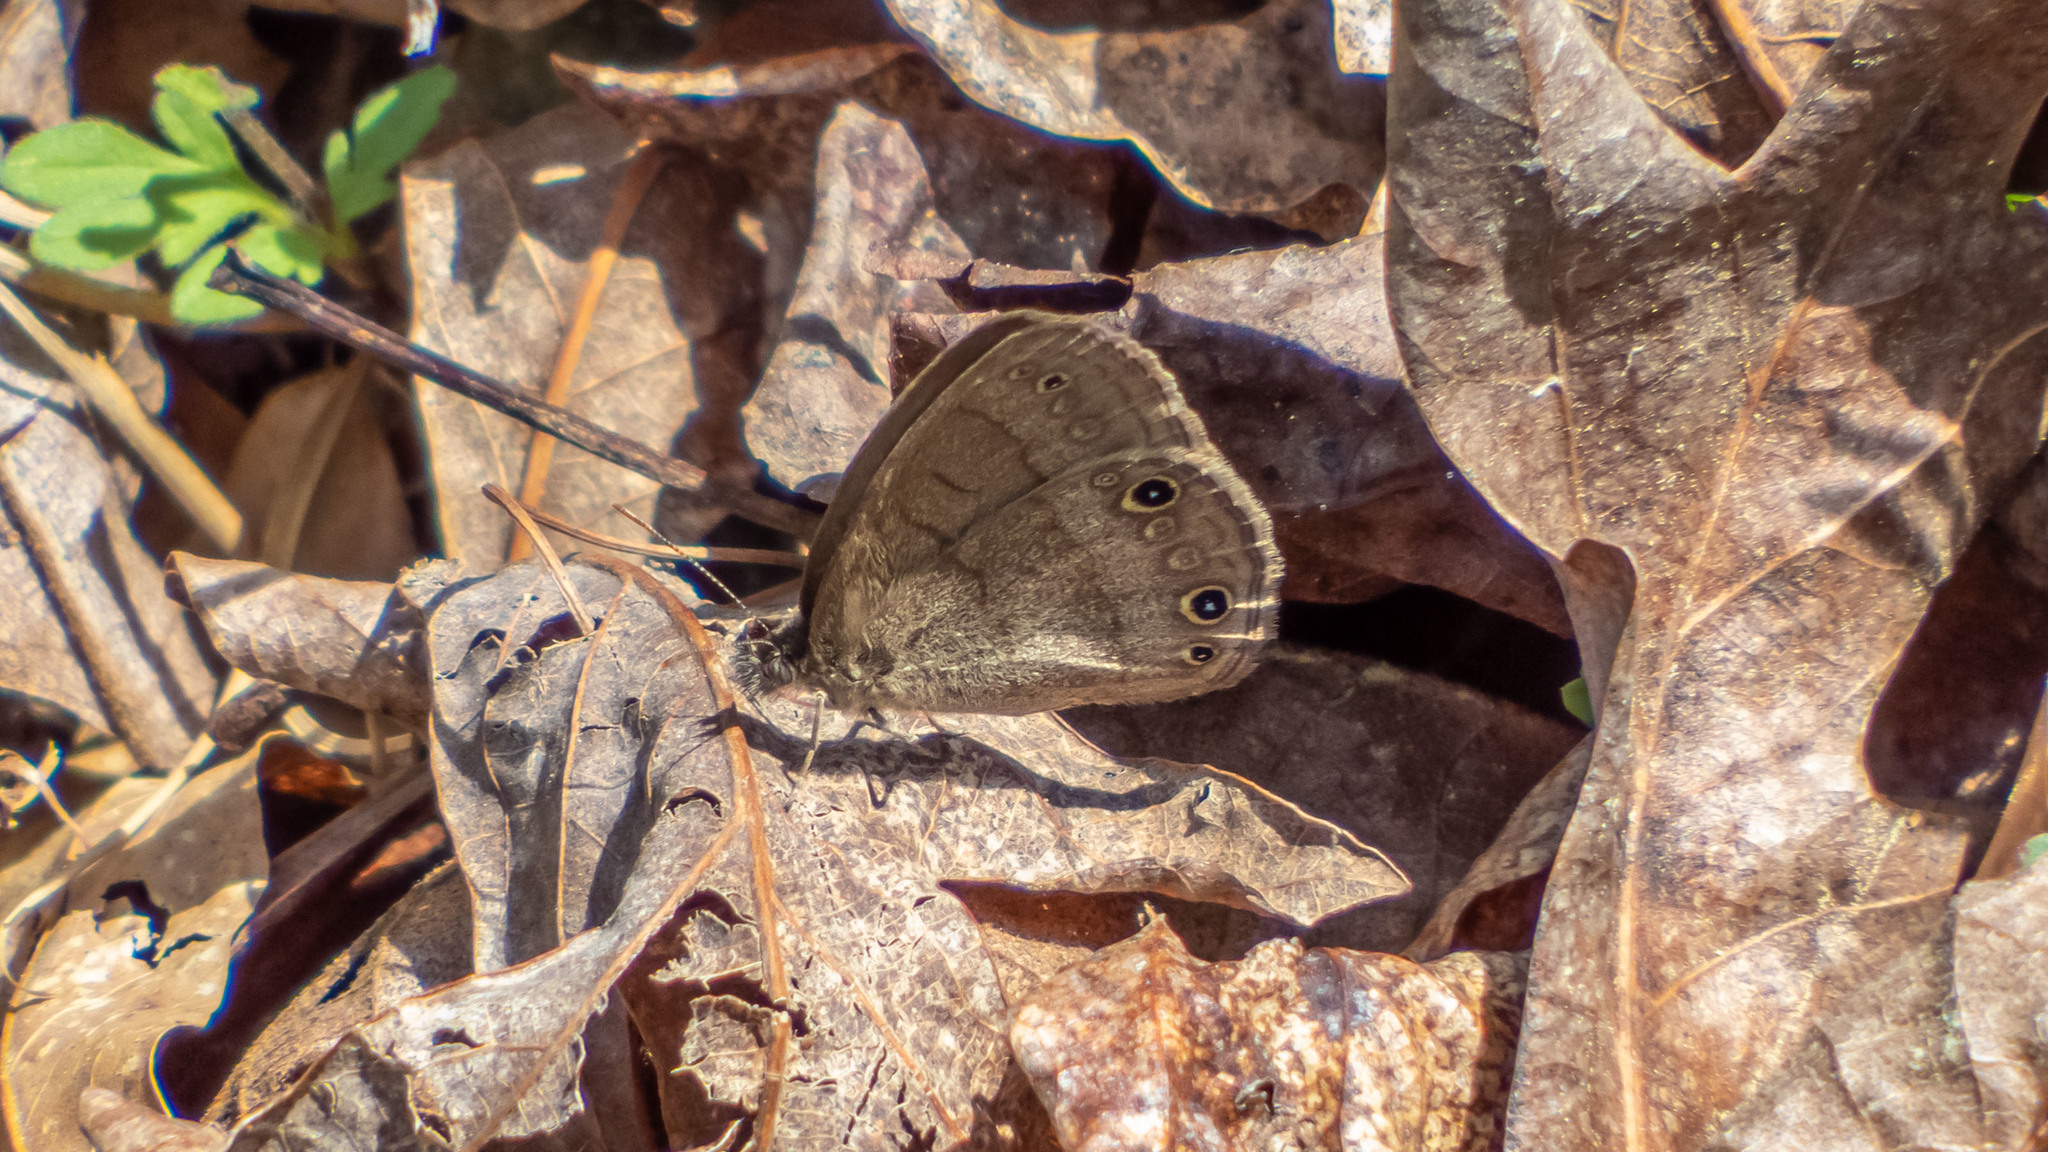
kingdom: Animalia
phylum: Arthropoda
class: Insecta
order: Lepidoptera
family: Nymphalidae
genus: Hermeuptychia
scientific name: Hermeuptychia hermes
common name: Hermes satyr
